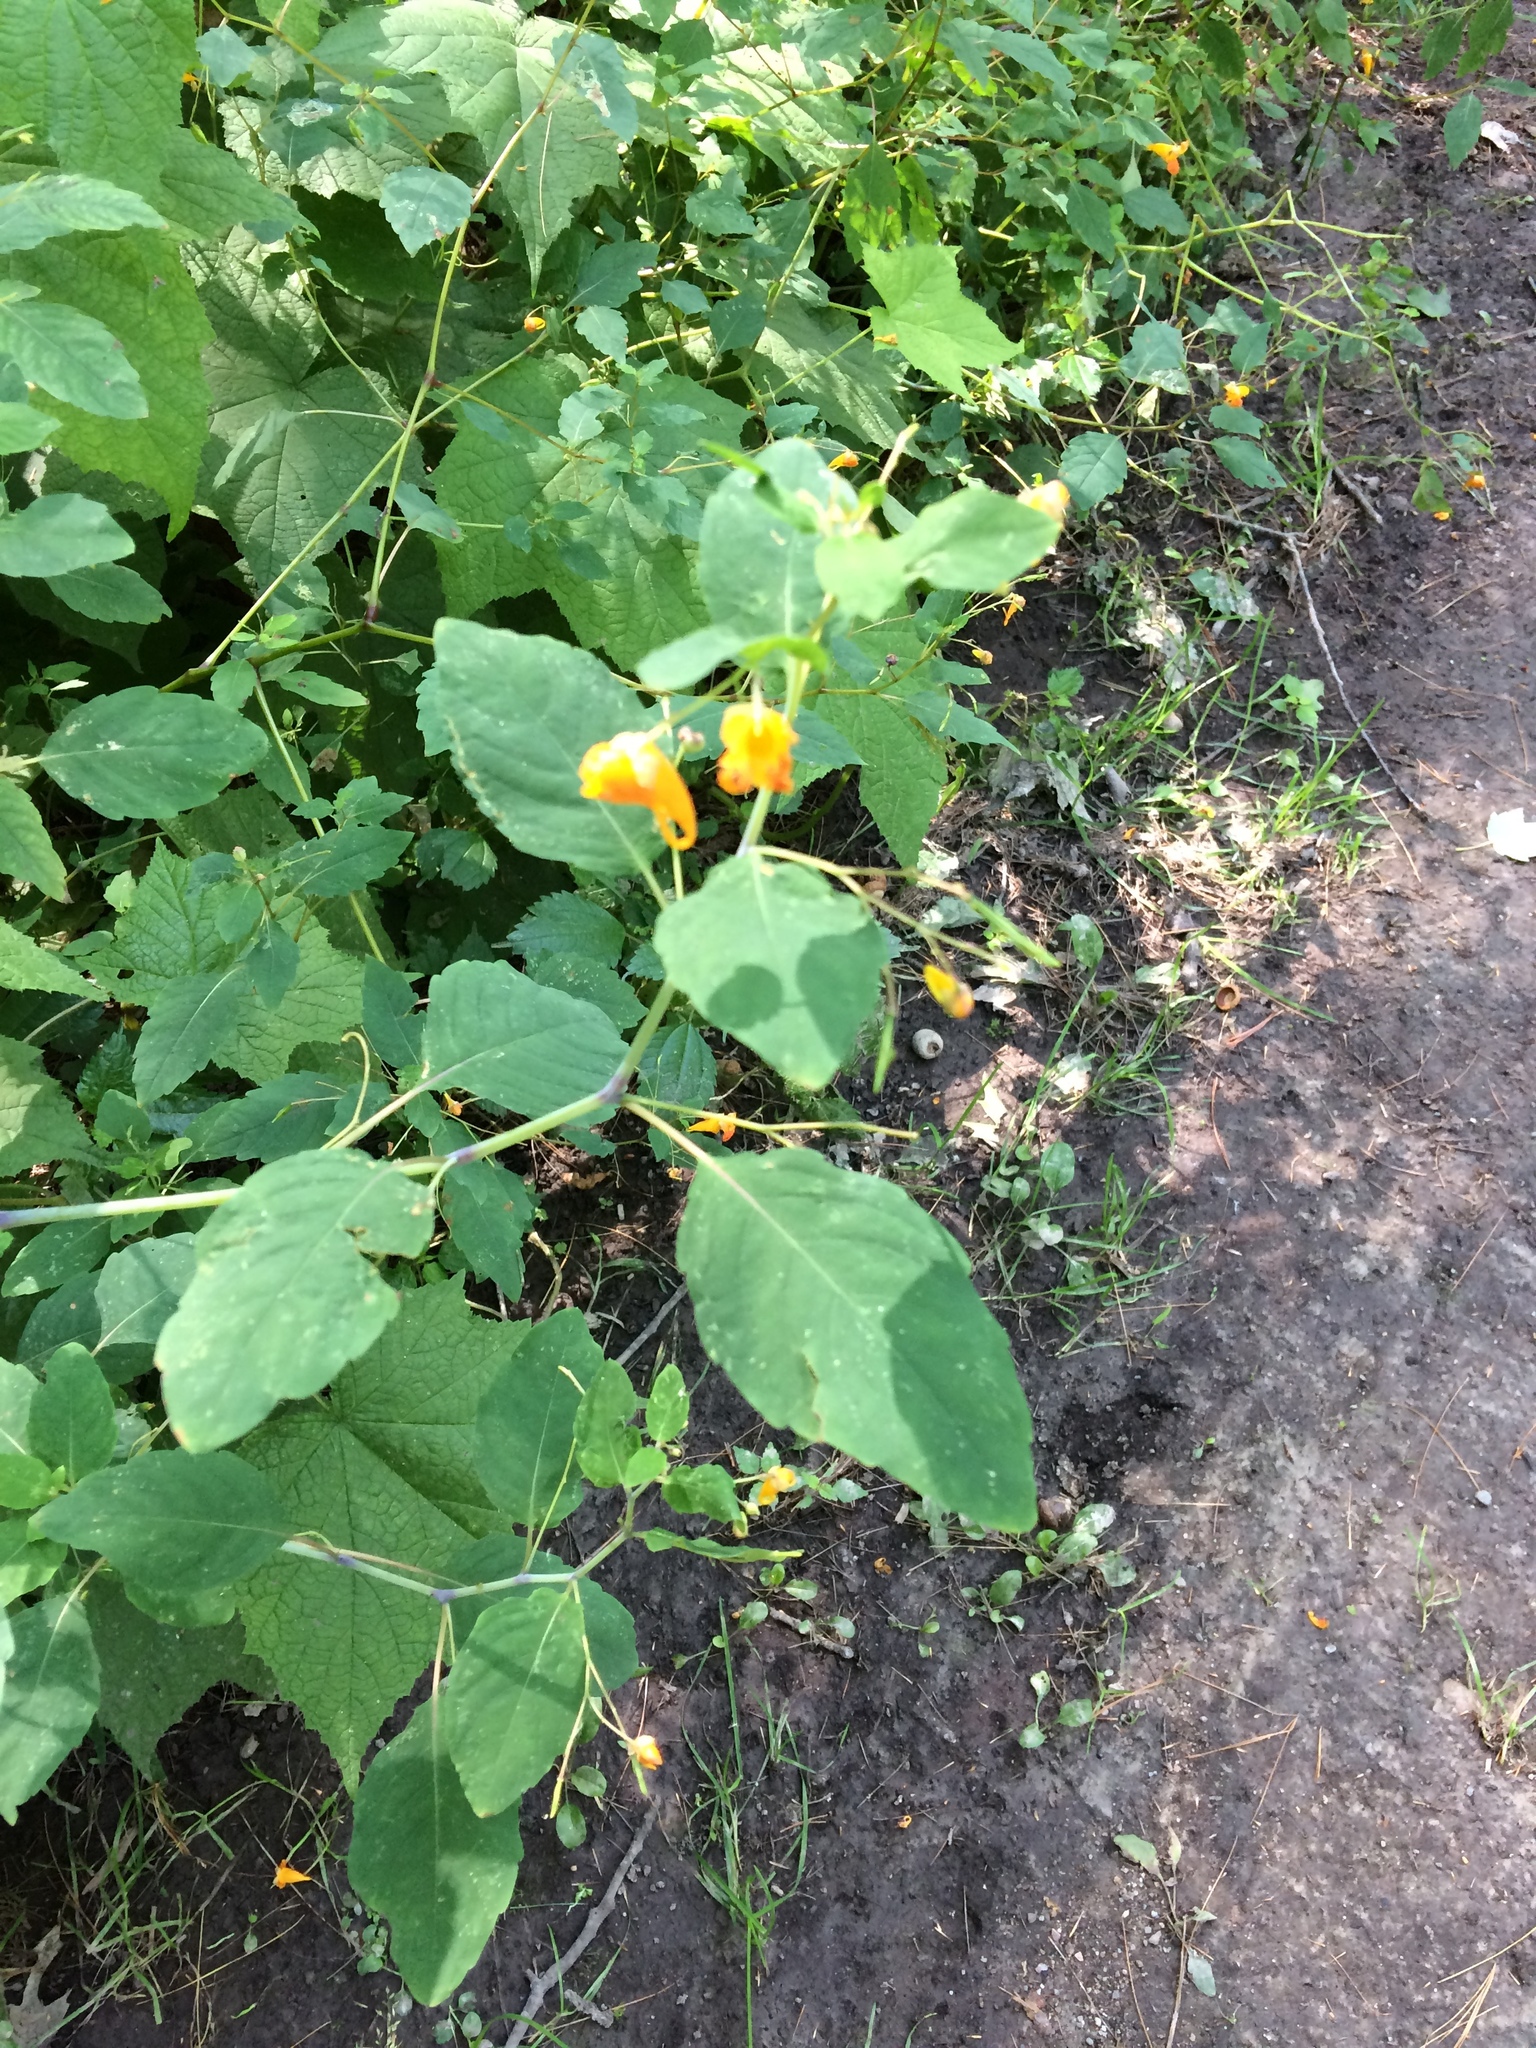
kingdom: Plantae
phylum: Tracheophyta
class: Magnoliopsida
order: Ericales
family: Balsaminaceae
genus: Impatiens
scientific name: Impatiens capensis
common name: Orange balsam
